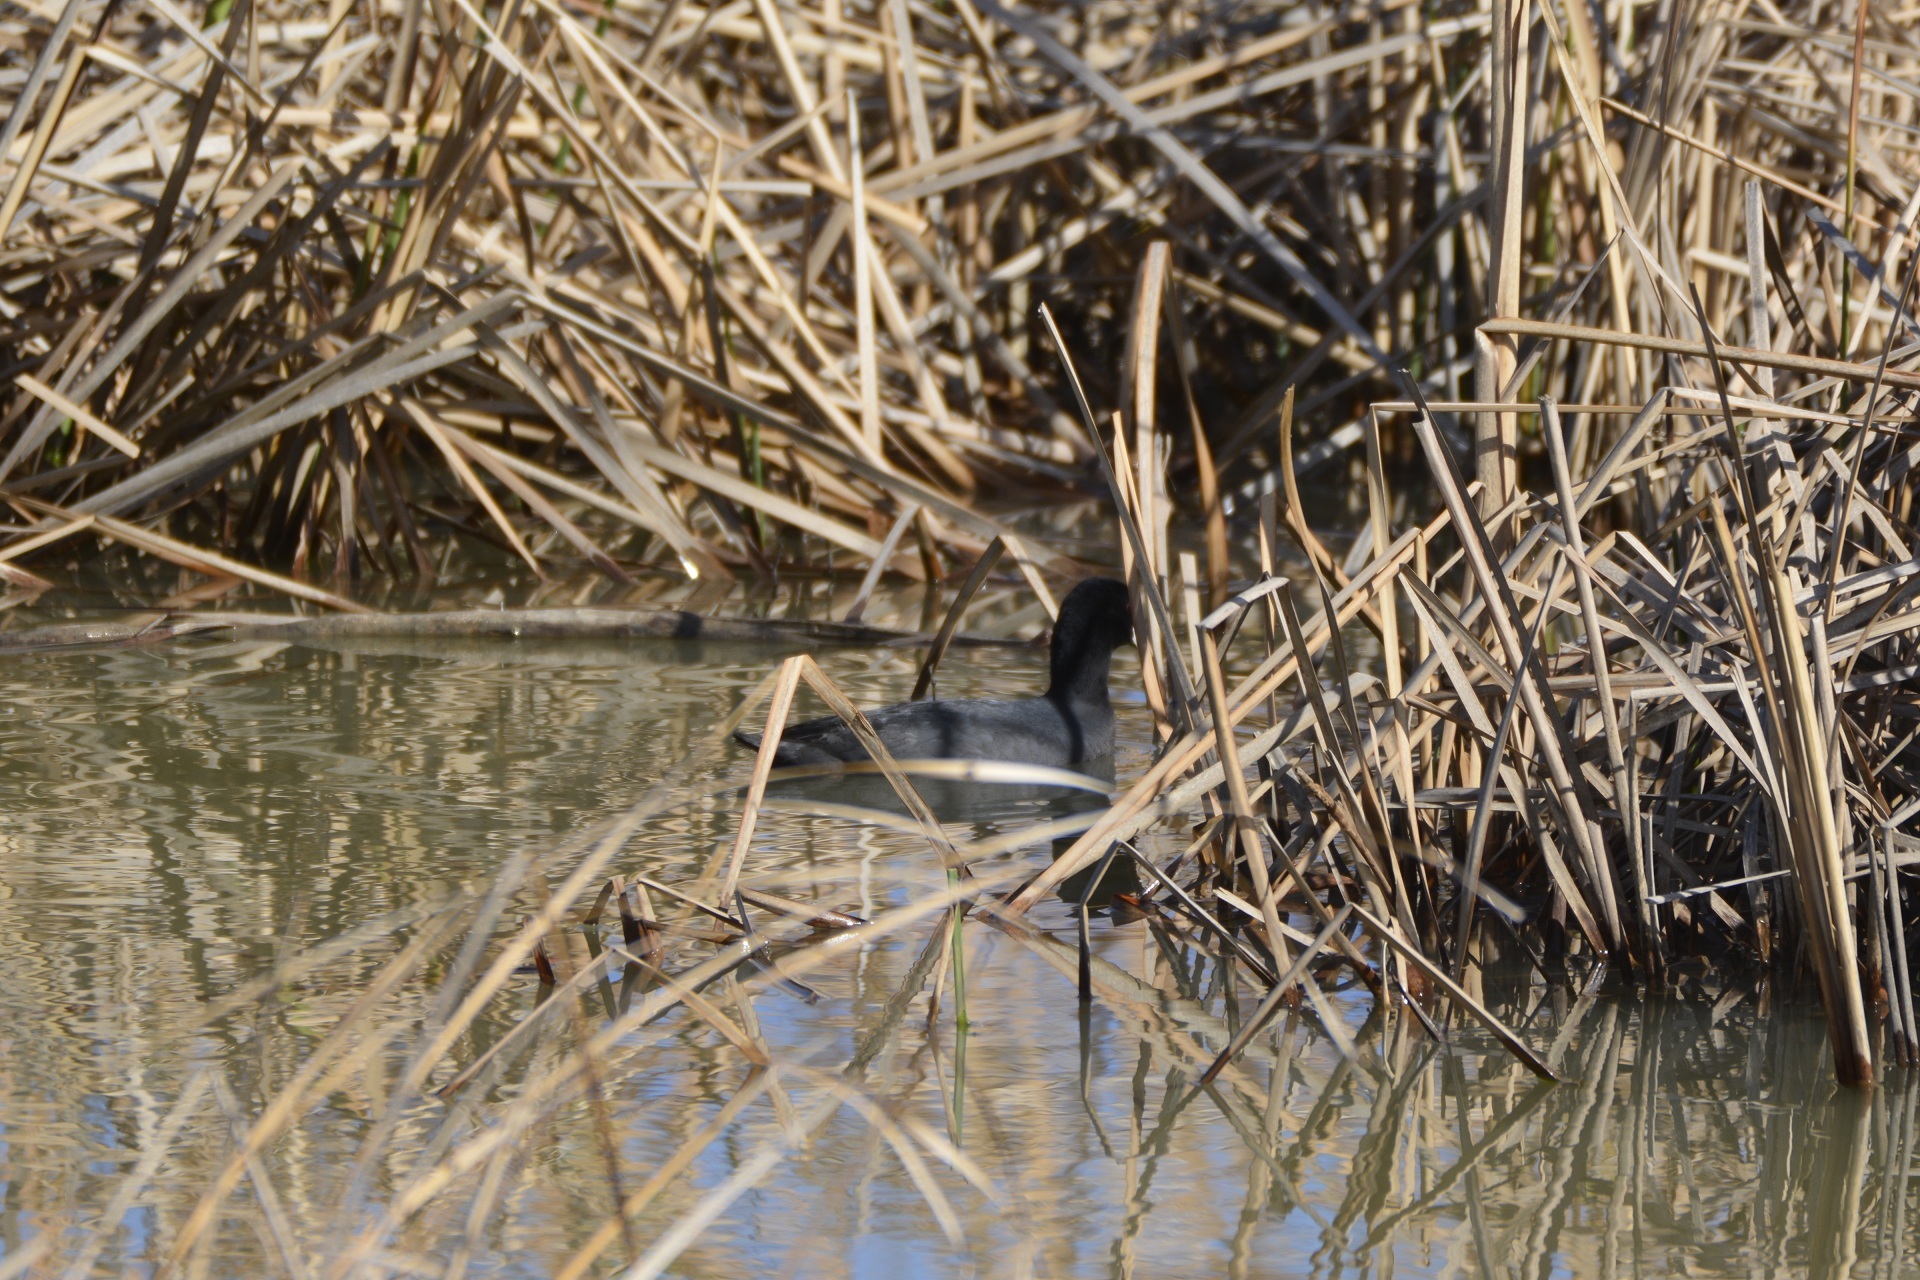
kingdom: Animalia
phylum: Chordata
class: Aves
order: Gruiformes
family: Rallidae
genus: Fulica
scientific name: Fulica atra
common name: Eurasian coot
